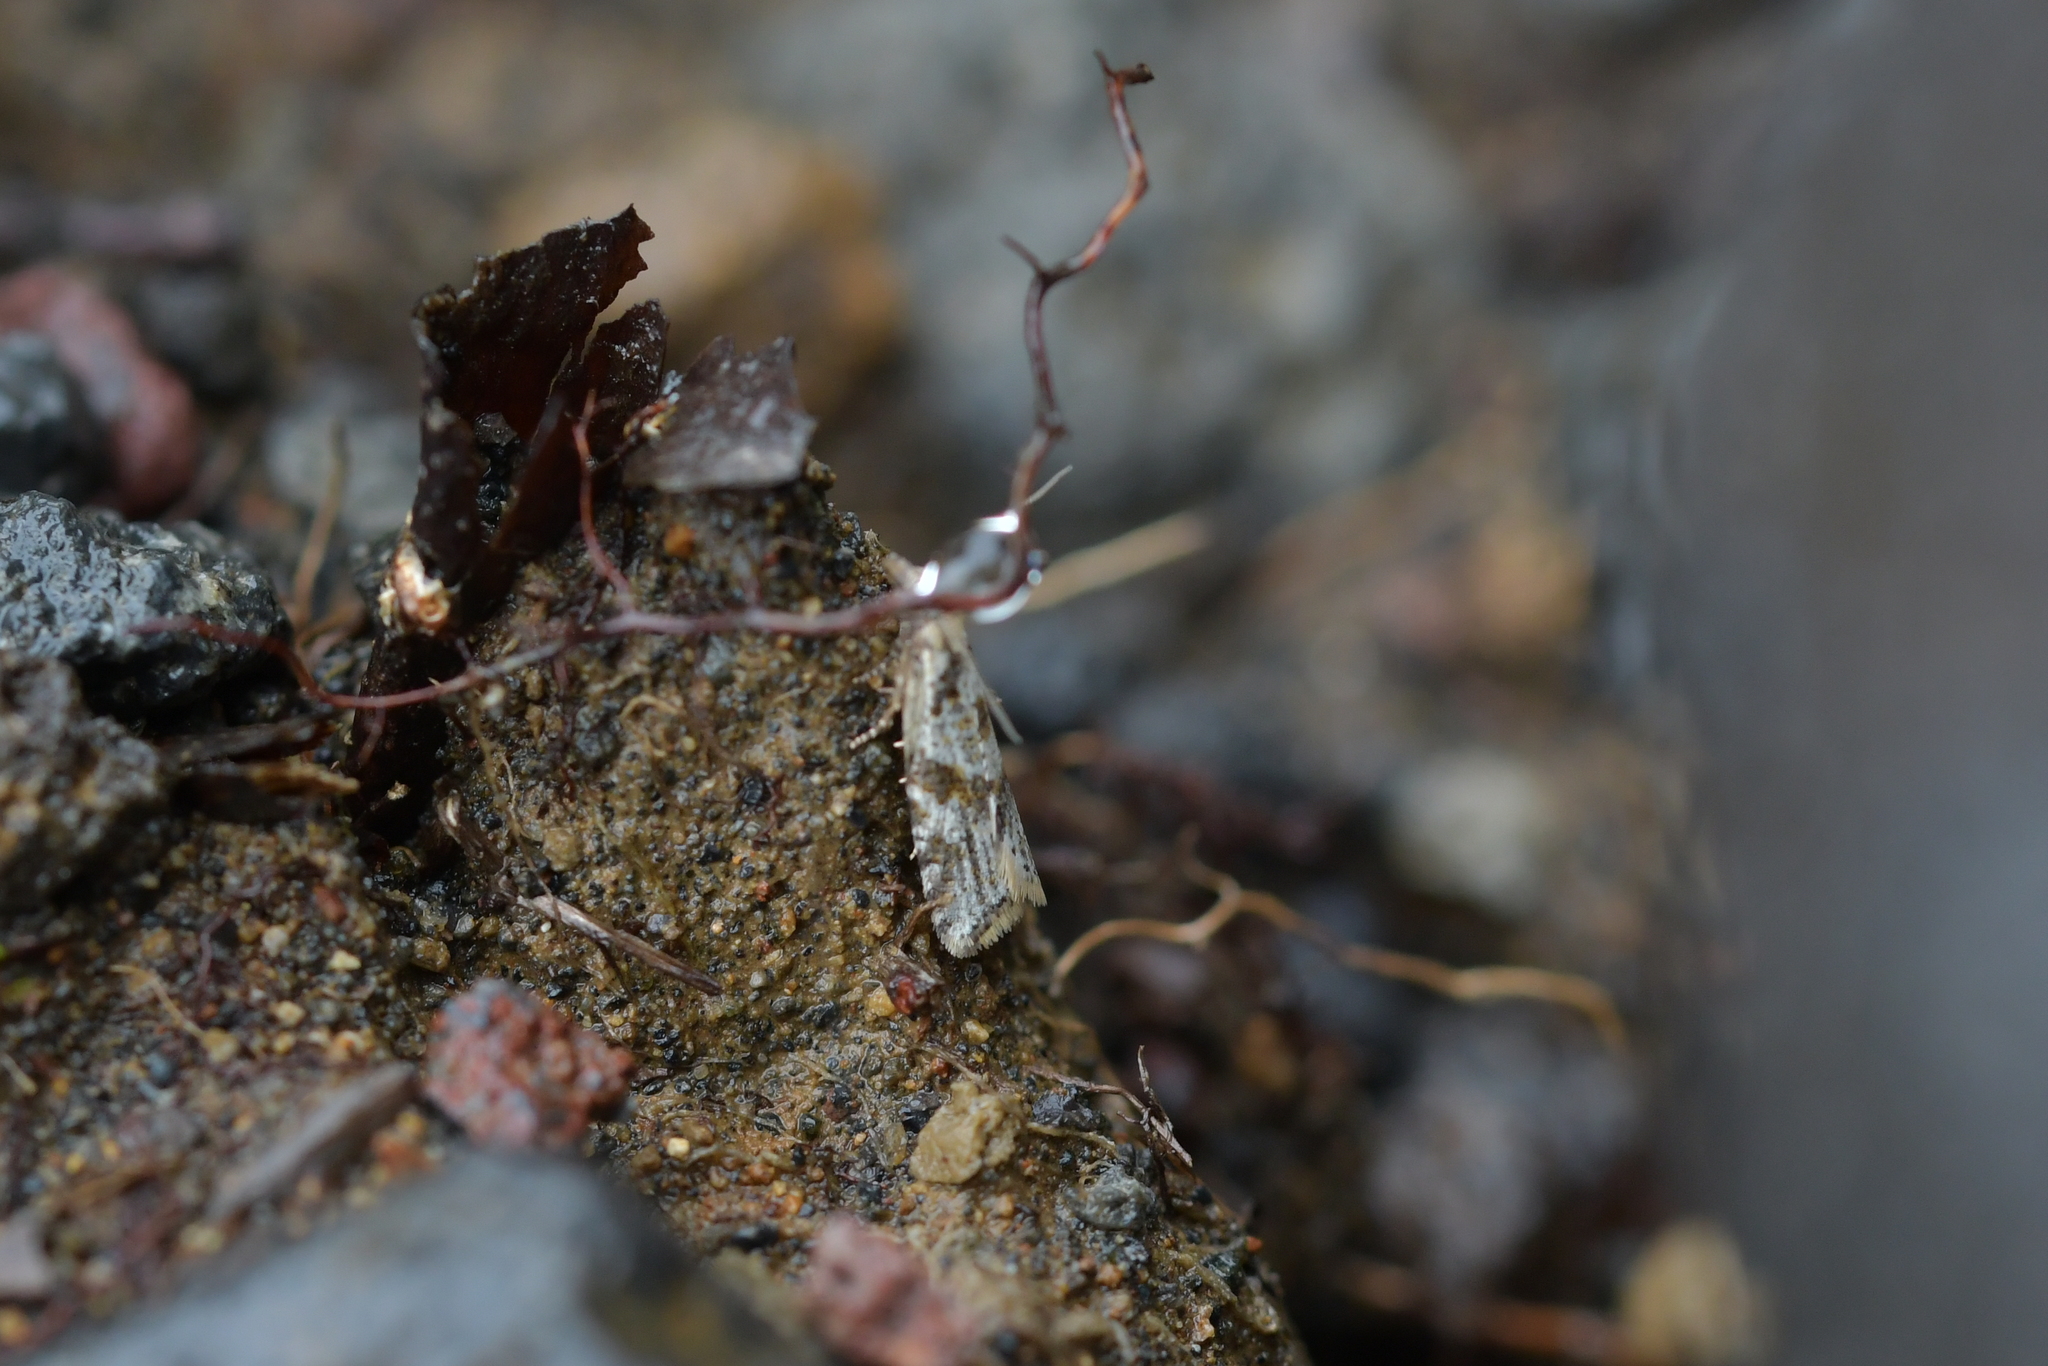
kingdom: Animalia
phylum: Arthropoda
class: Insecta
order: Lepidoptera
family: Tortricidae
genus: Capua
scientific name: Capua semiferana
